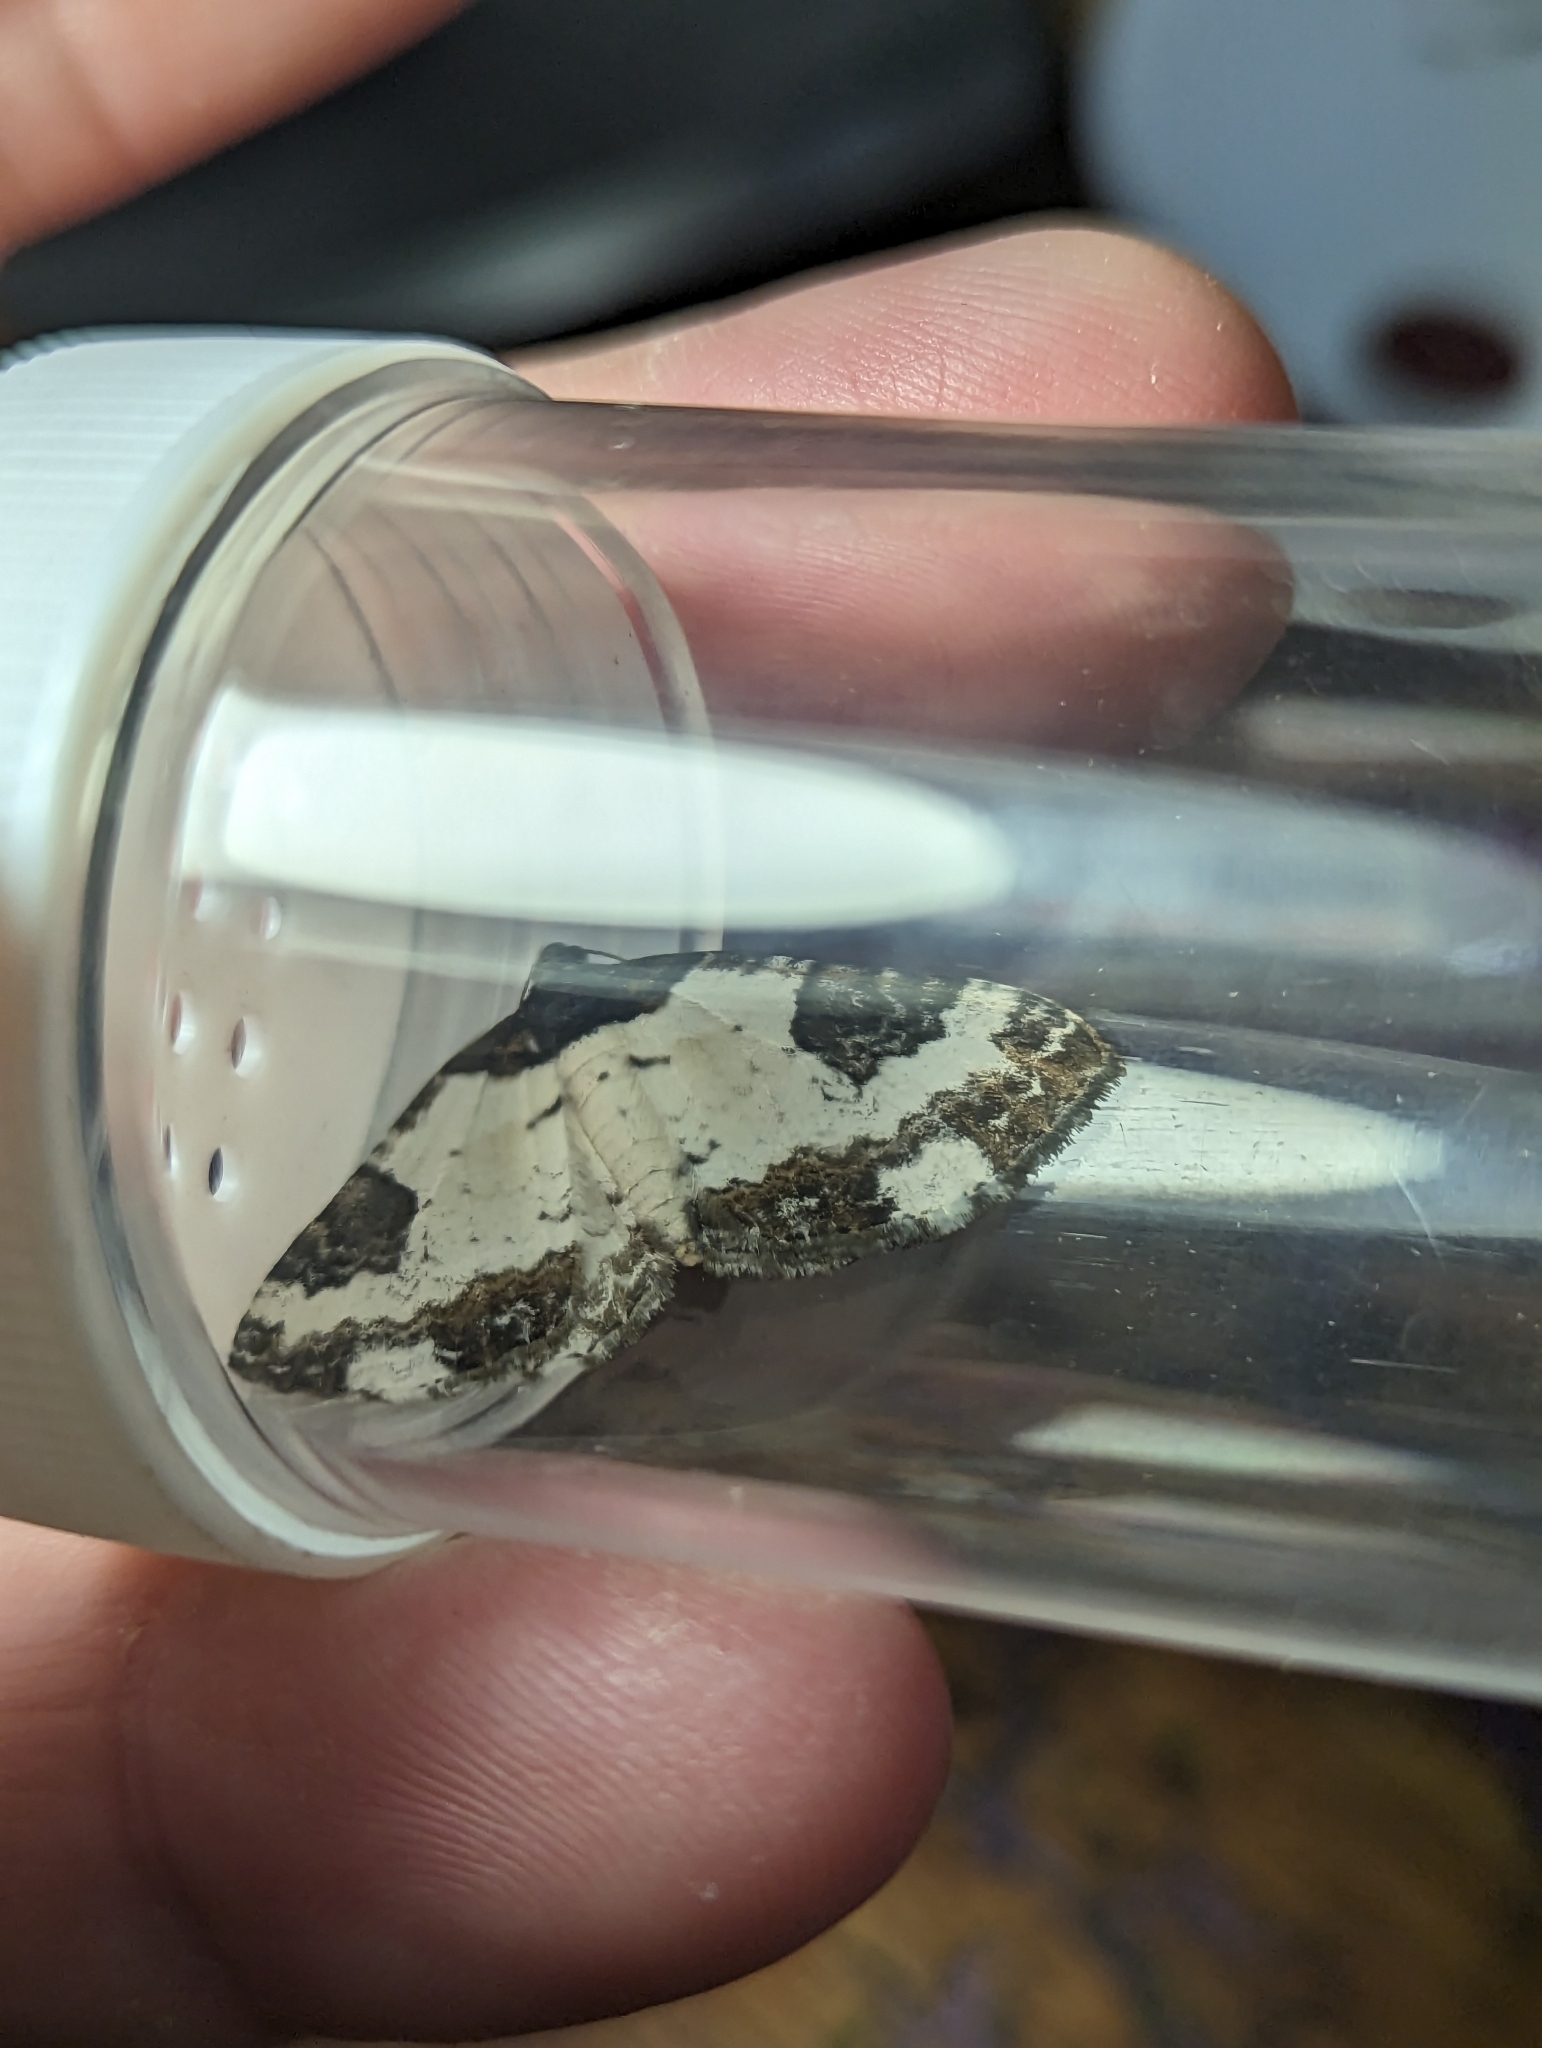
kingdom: Animalia
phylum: Arthropoda
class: Insecta
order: Lepidoptera
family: Geometridae
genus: Melanthia
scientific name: Melanthia procellata
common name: Pretty chalk carpet
